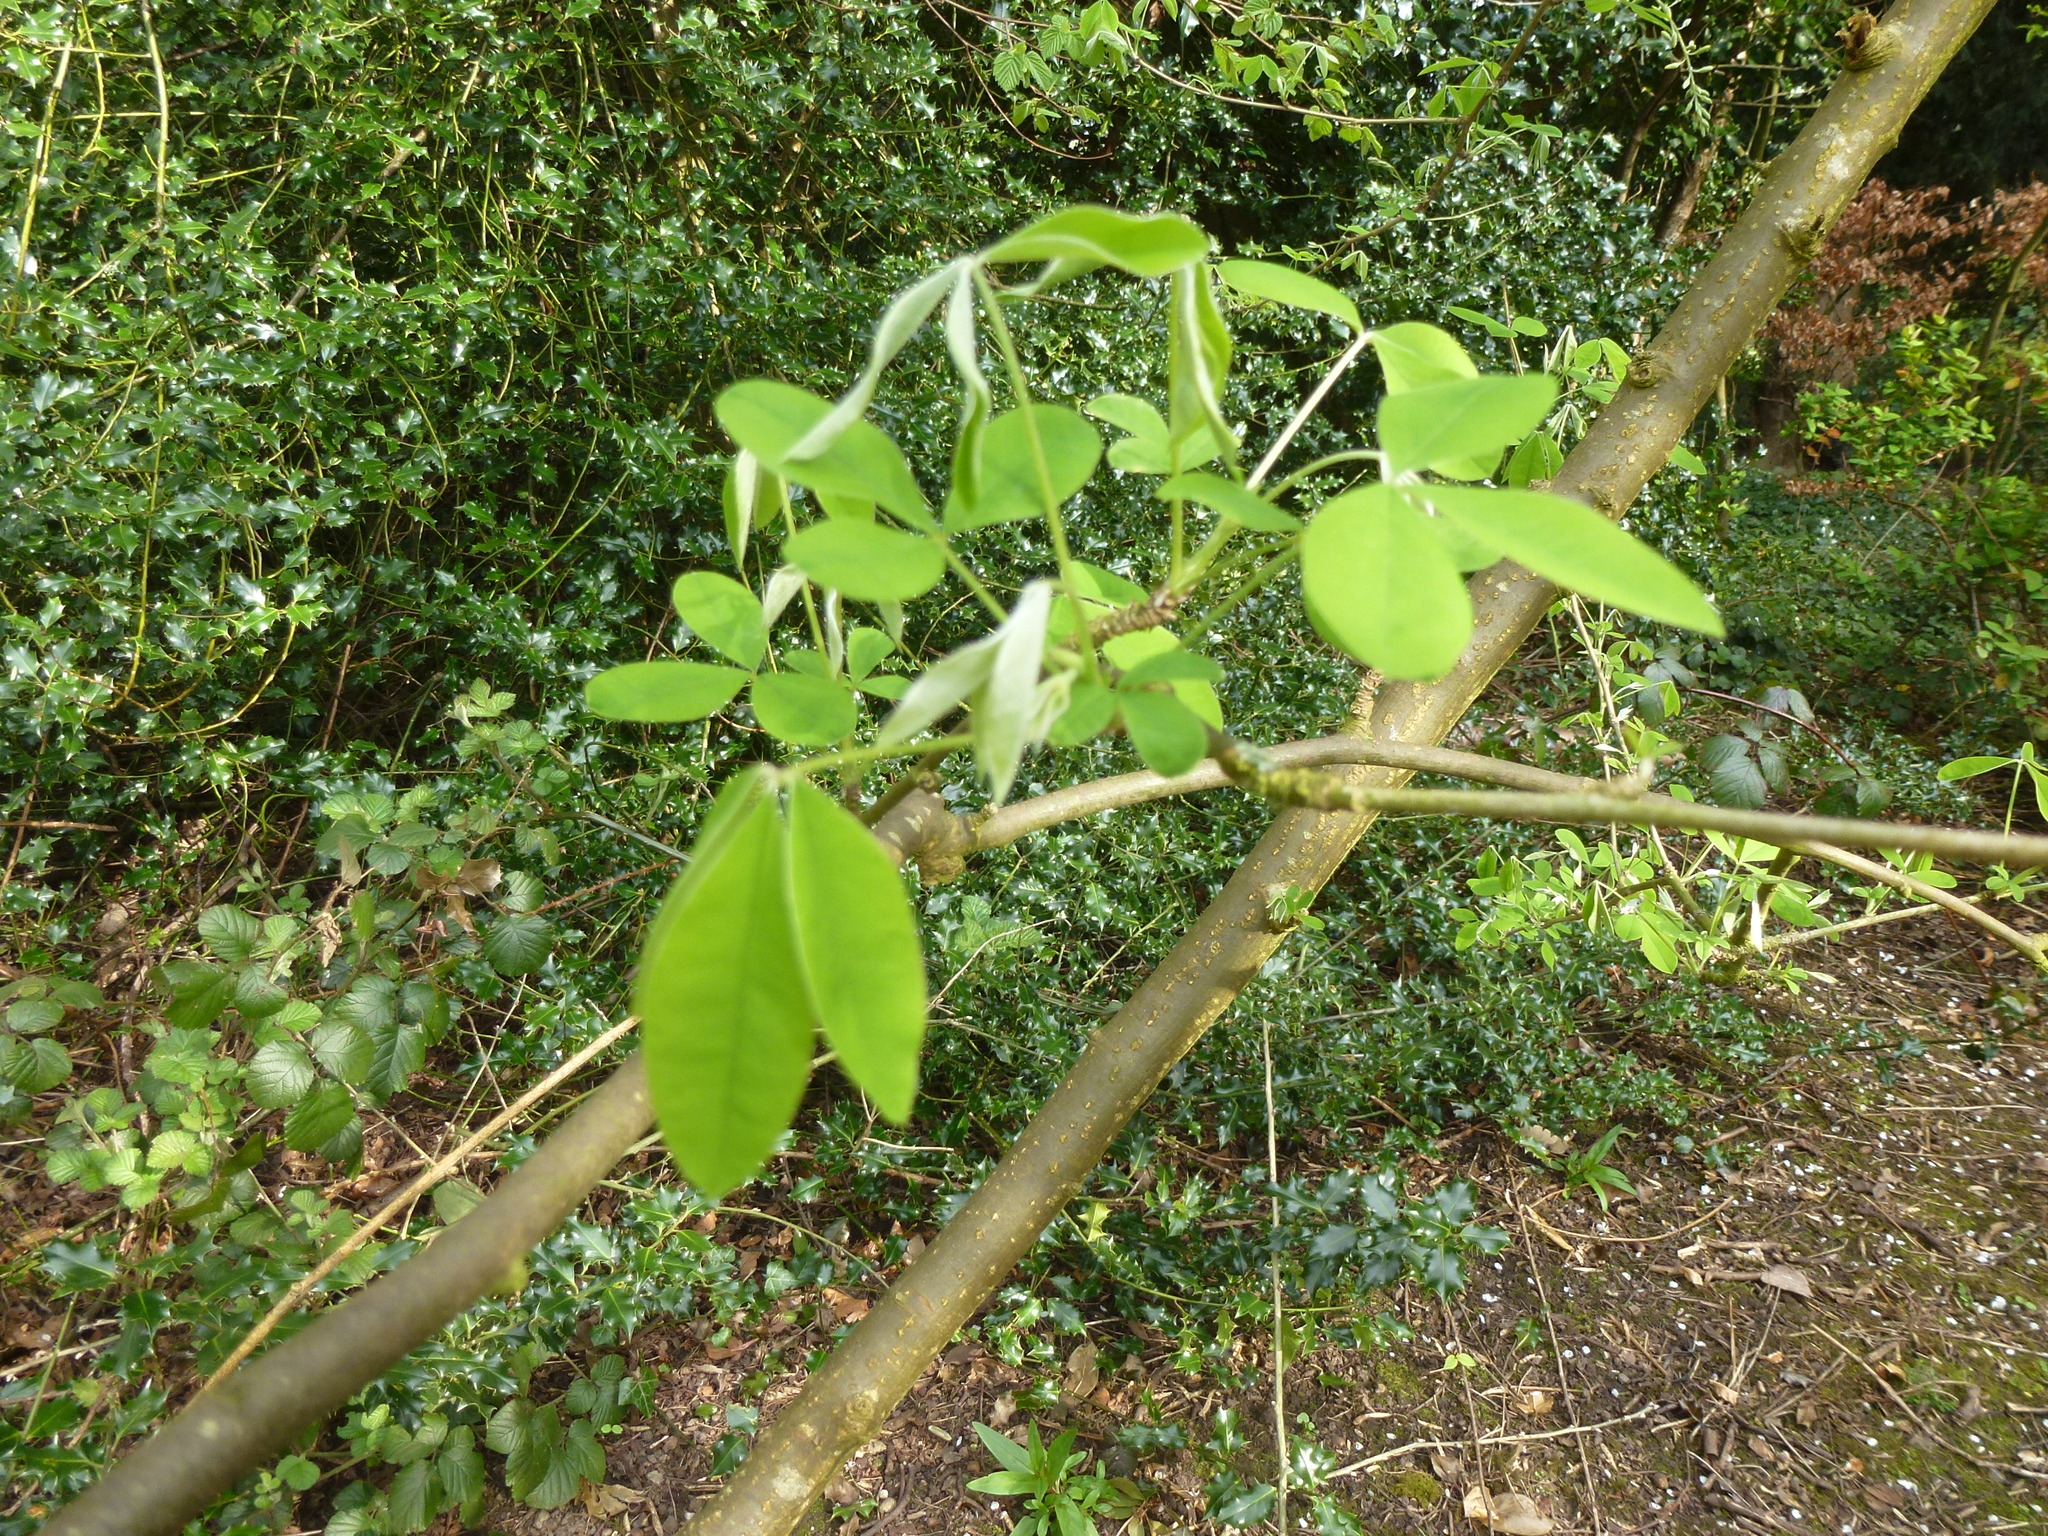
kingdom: Plantae
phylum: Tracheophyta
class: Magnoliopsida
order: Fabales
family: Fabaceae
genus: Laburnum
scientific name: Laburnum anagyroides
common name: Laburnum
